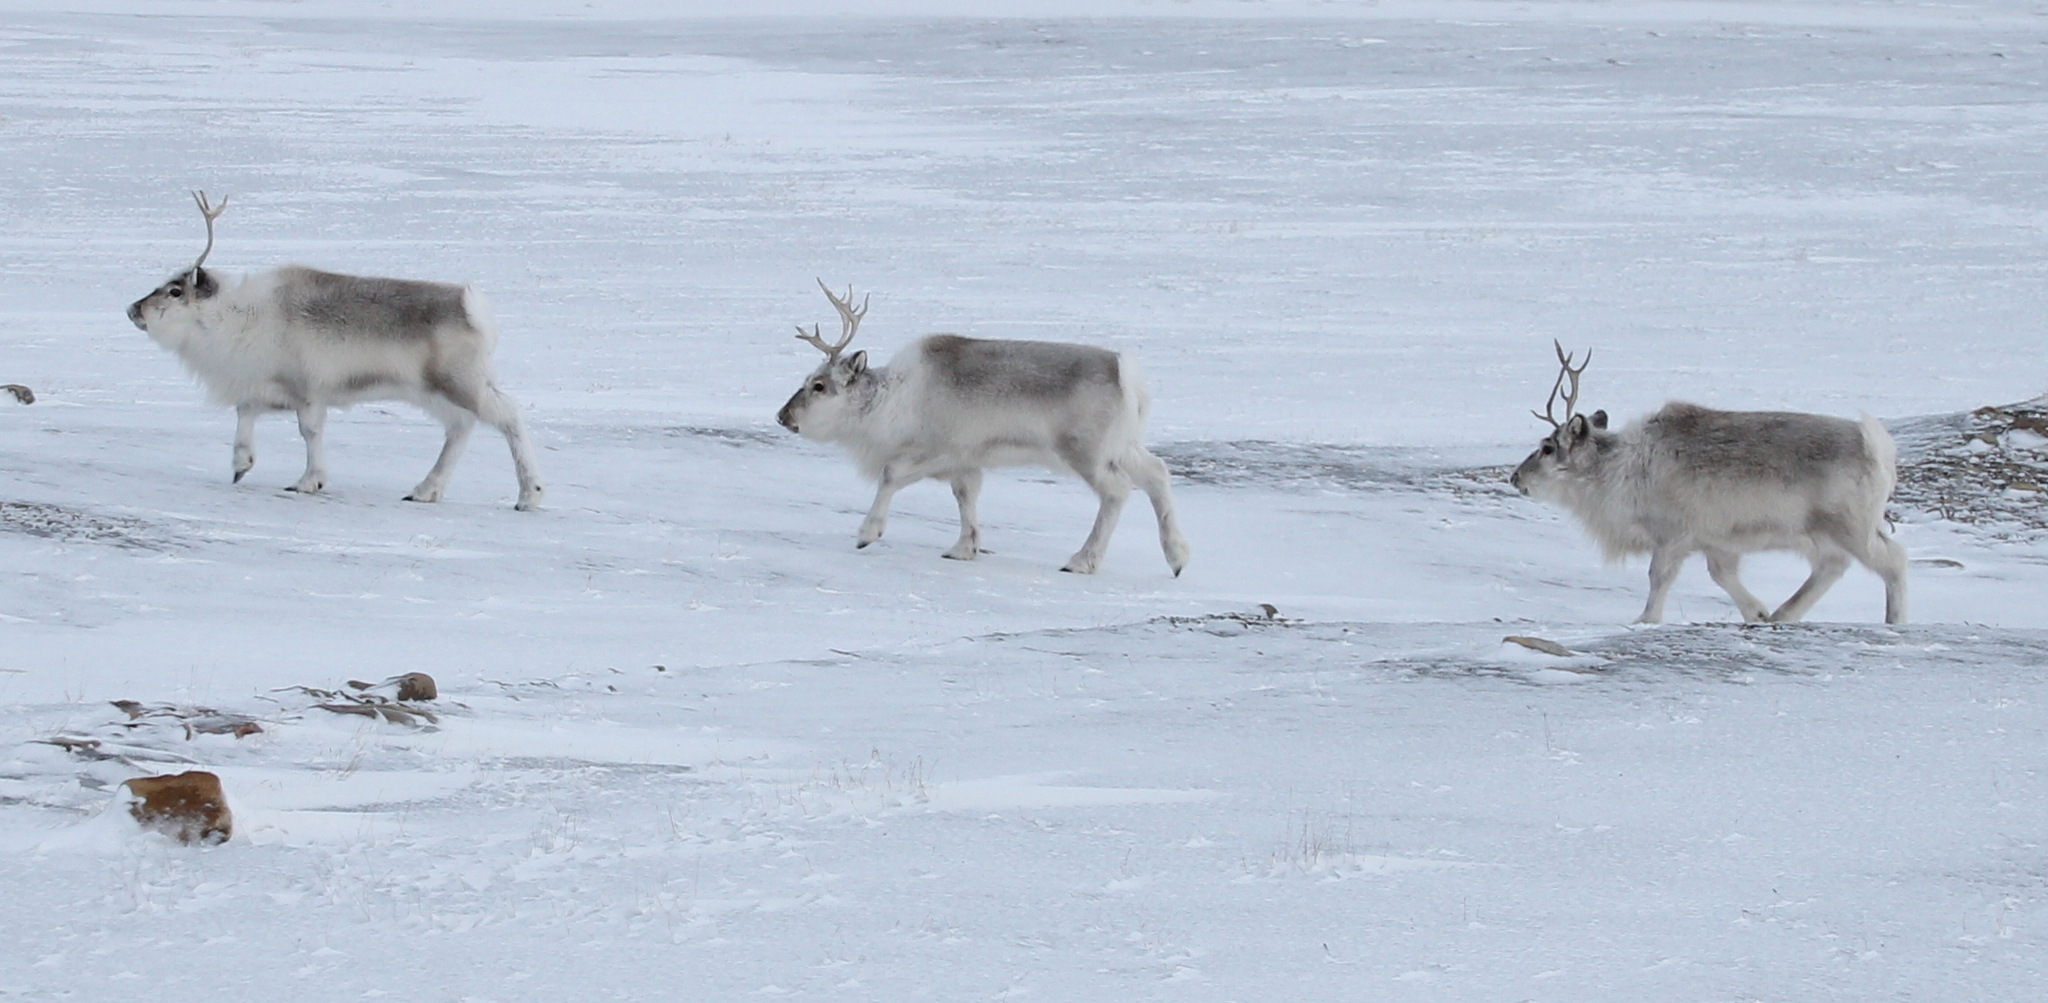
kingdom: Animalia
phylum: Chordata
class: Mammalia
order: Artiodactyla
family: Cervidae
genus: Rangifer
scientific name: Rangifer tarandus
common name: Reindeer
